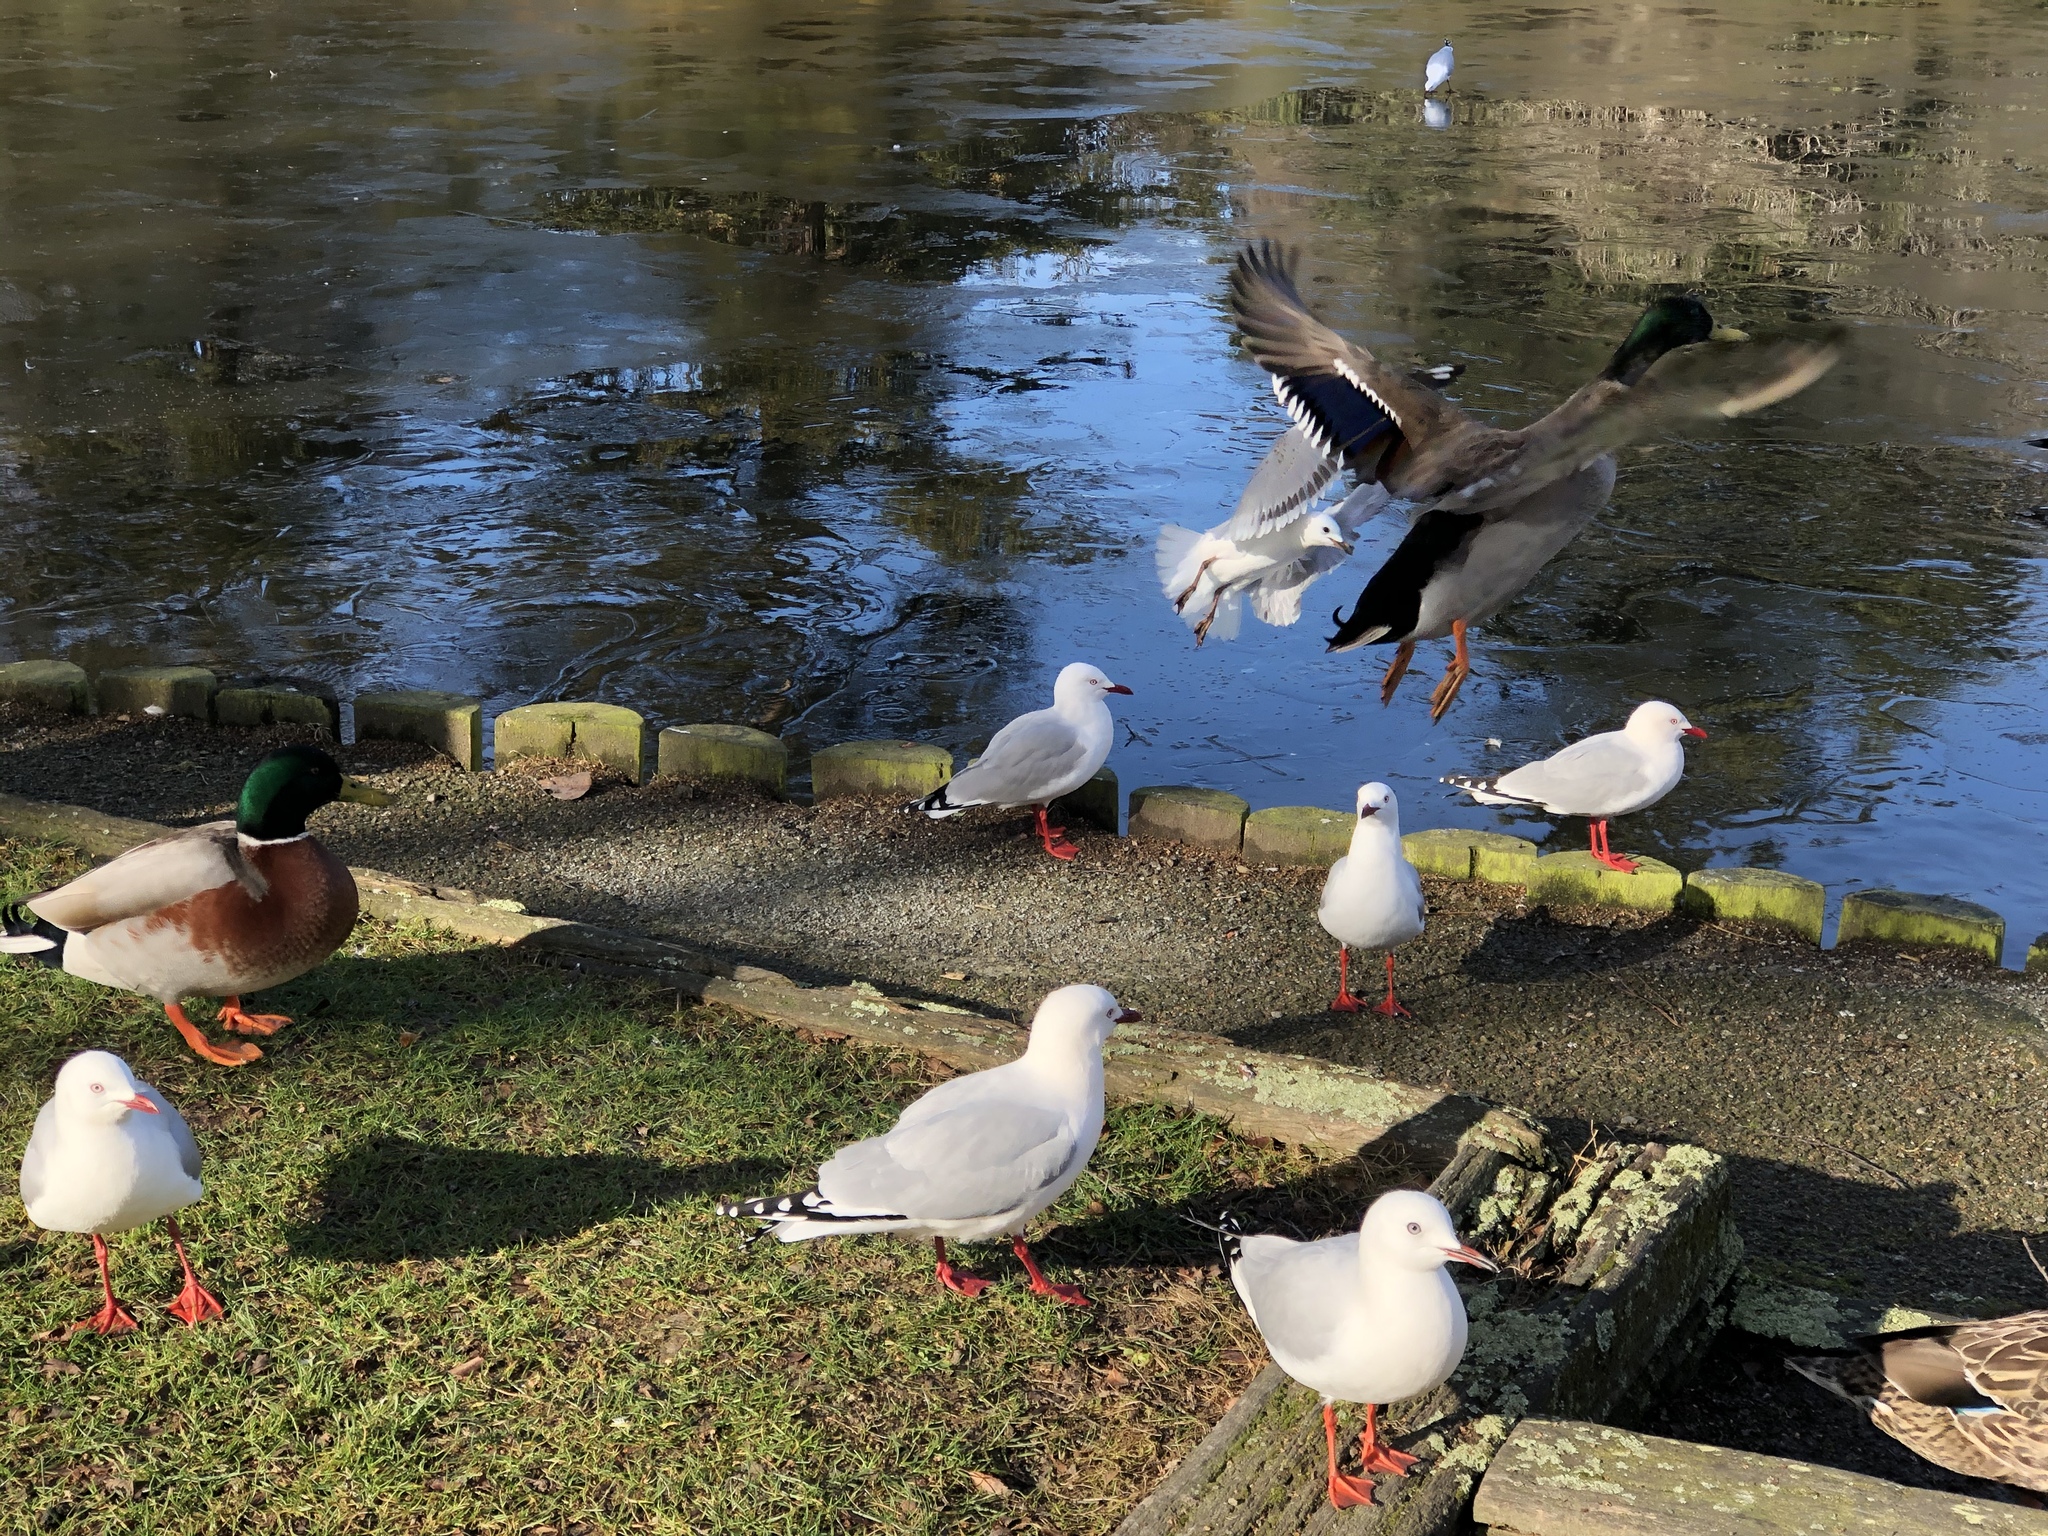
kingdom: Animalia
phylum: Chordata
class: Aves
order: Charadriiformes
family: Laridae
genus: Chroicocephalus
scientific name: Chroicocephalus novaehollandiae
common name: Silver gull
